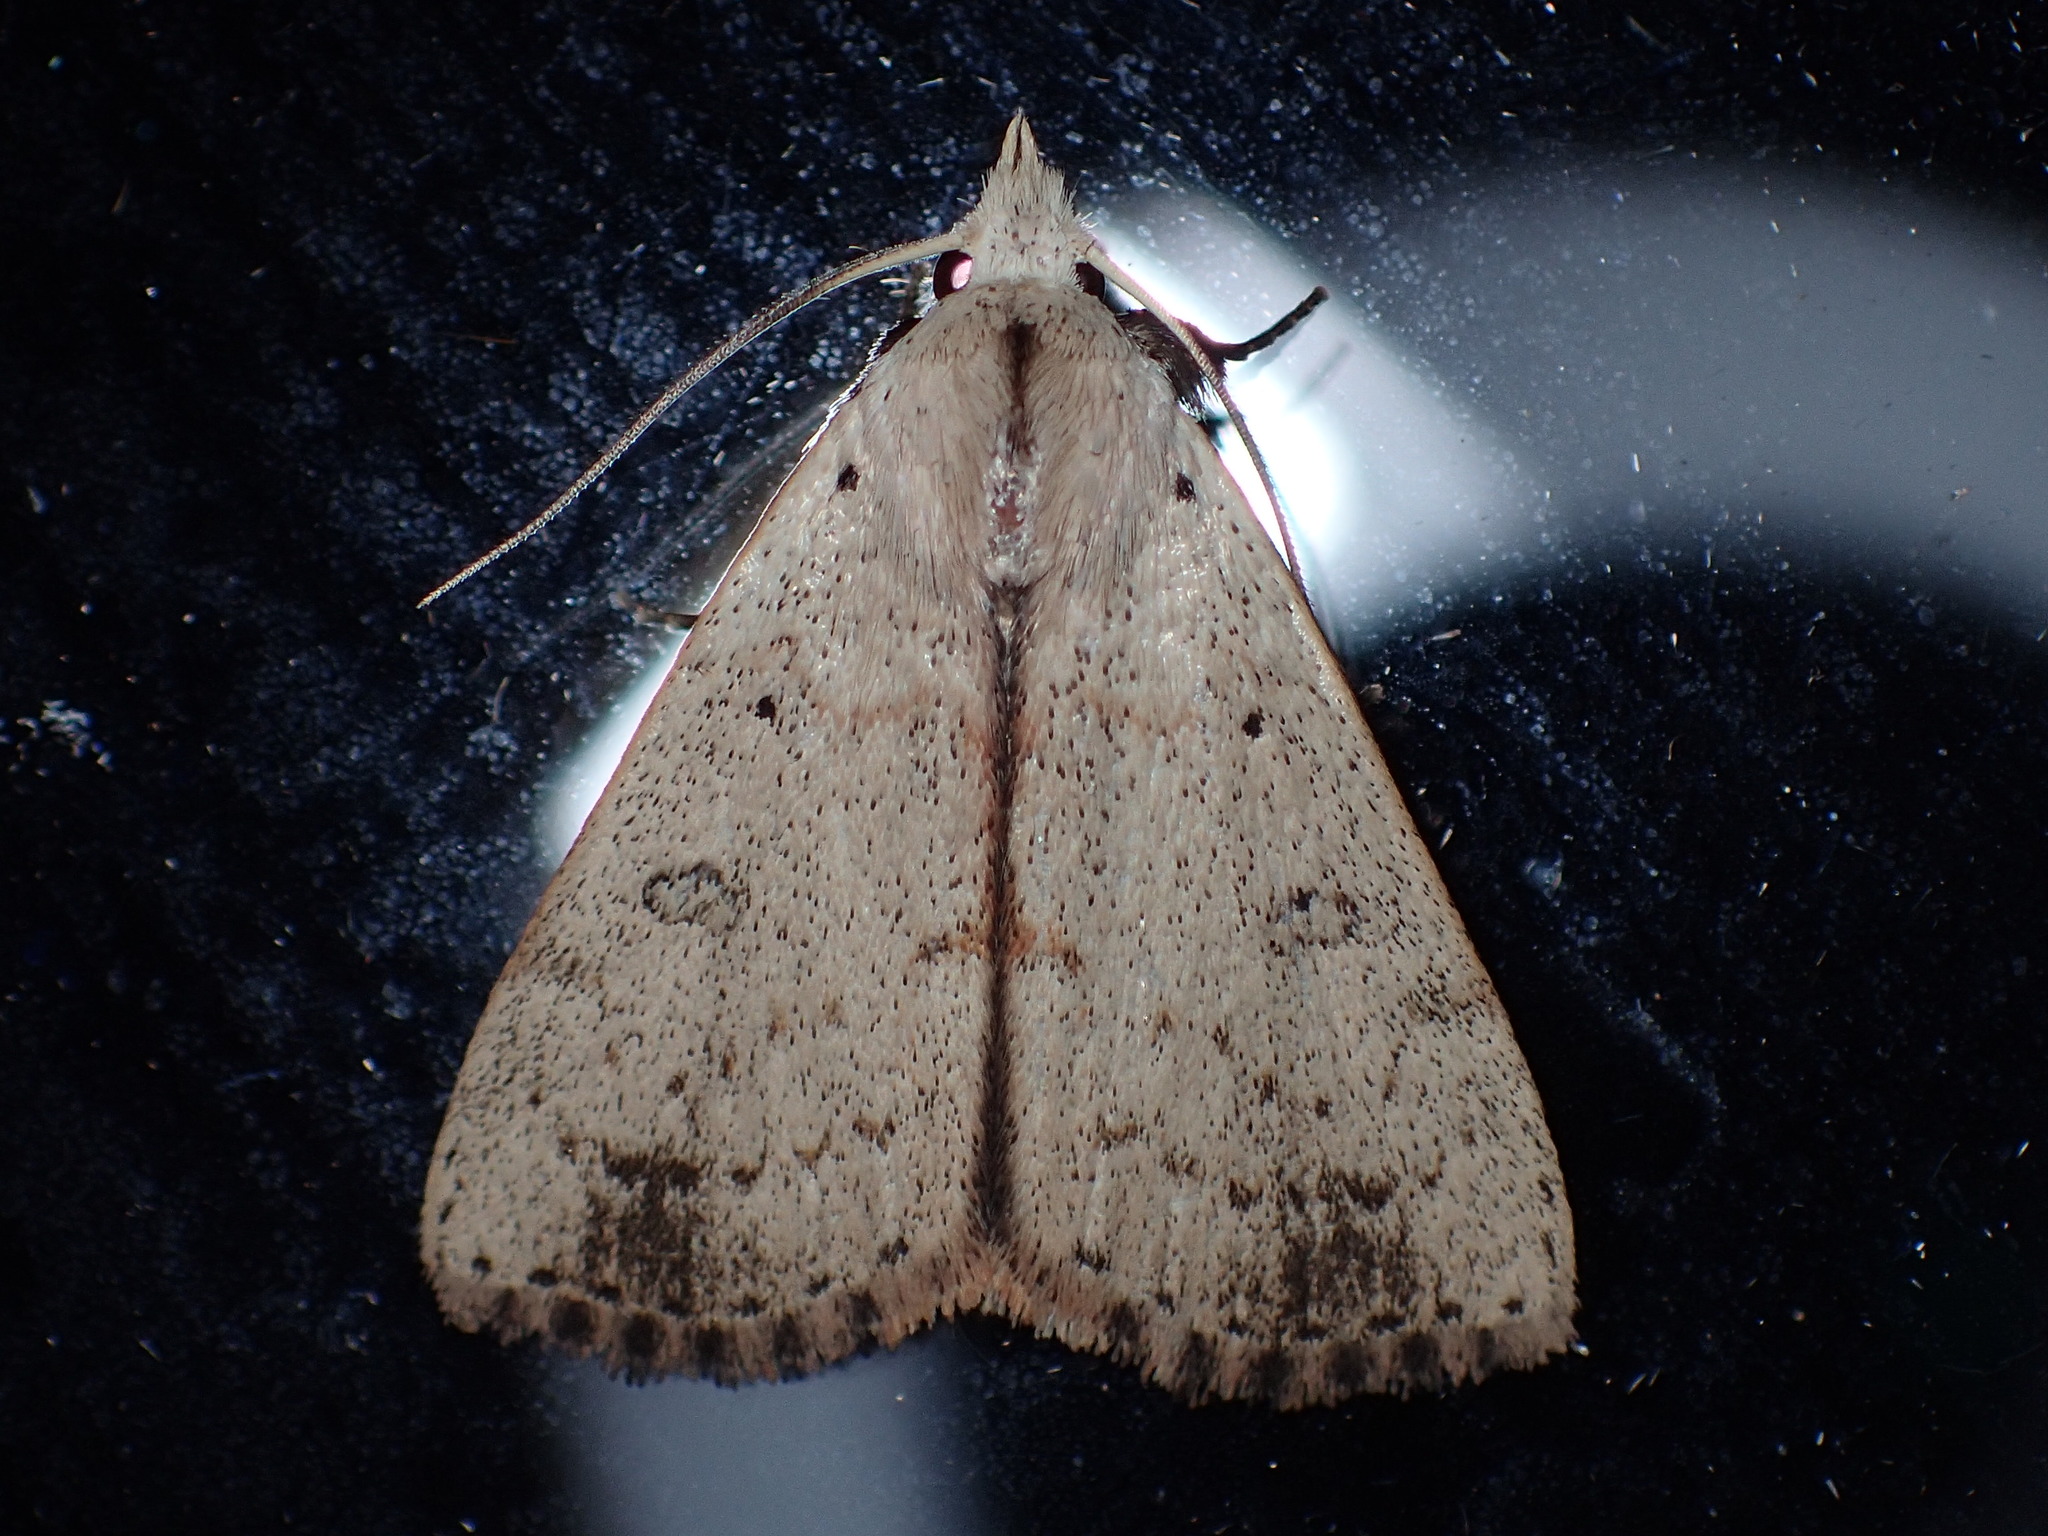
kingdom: Animalia
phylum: Arthropoda
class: Insecta
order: Lepidoptera
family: Erebidae
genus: Scolecocampa
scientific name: Scolecocampa liburna
